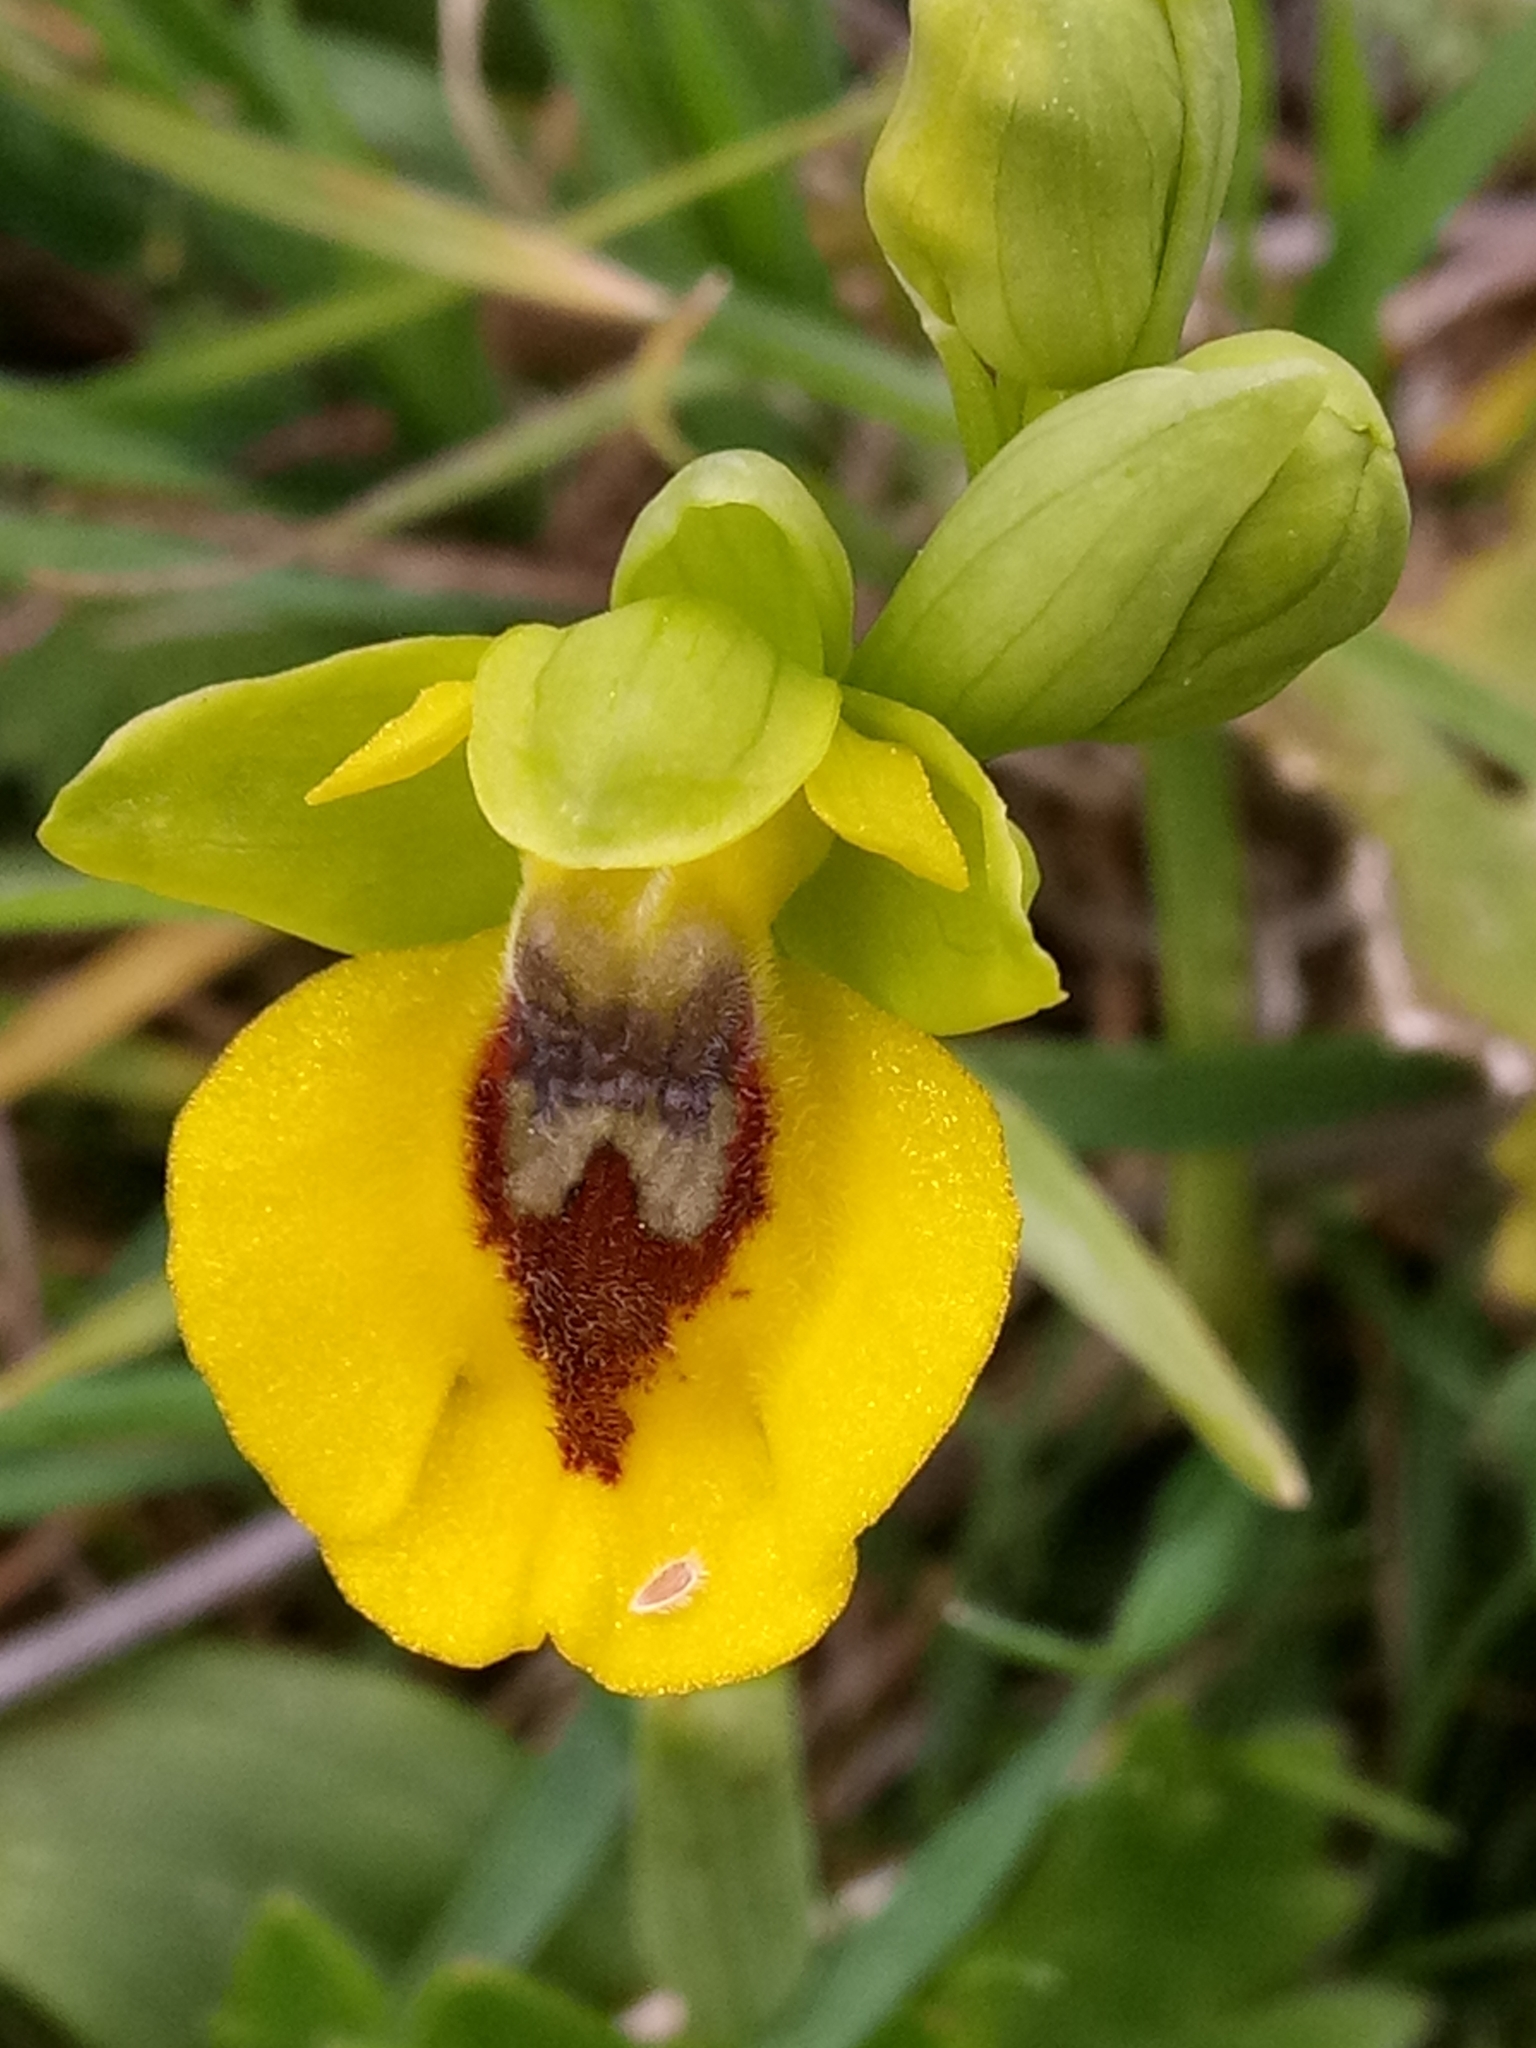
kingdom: Plantae
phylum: Tracheophyta
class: Liliopsida
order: Asparagales
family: Orchidaceae
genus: Ophrys
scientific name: Ophrys lutea
